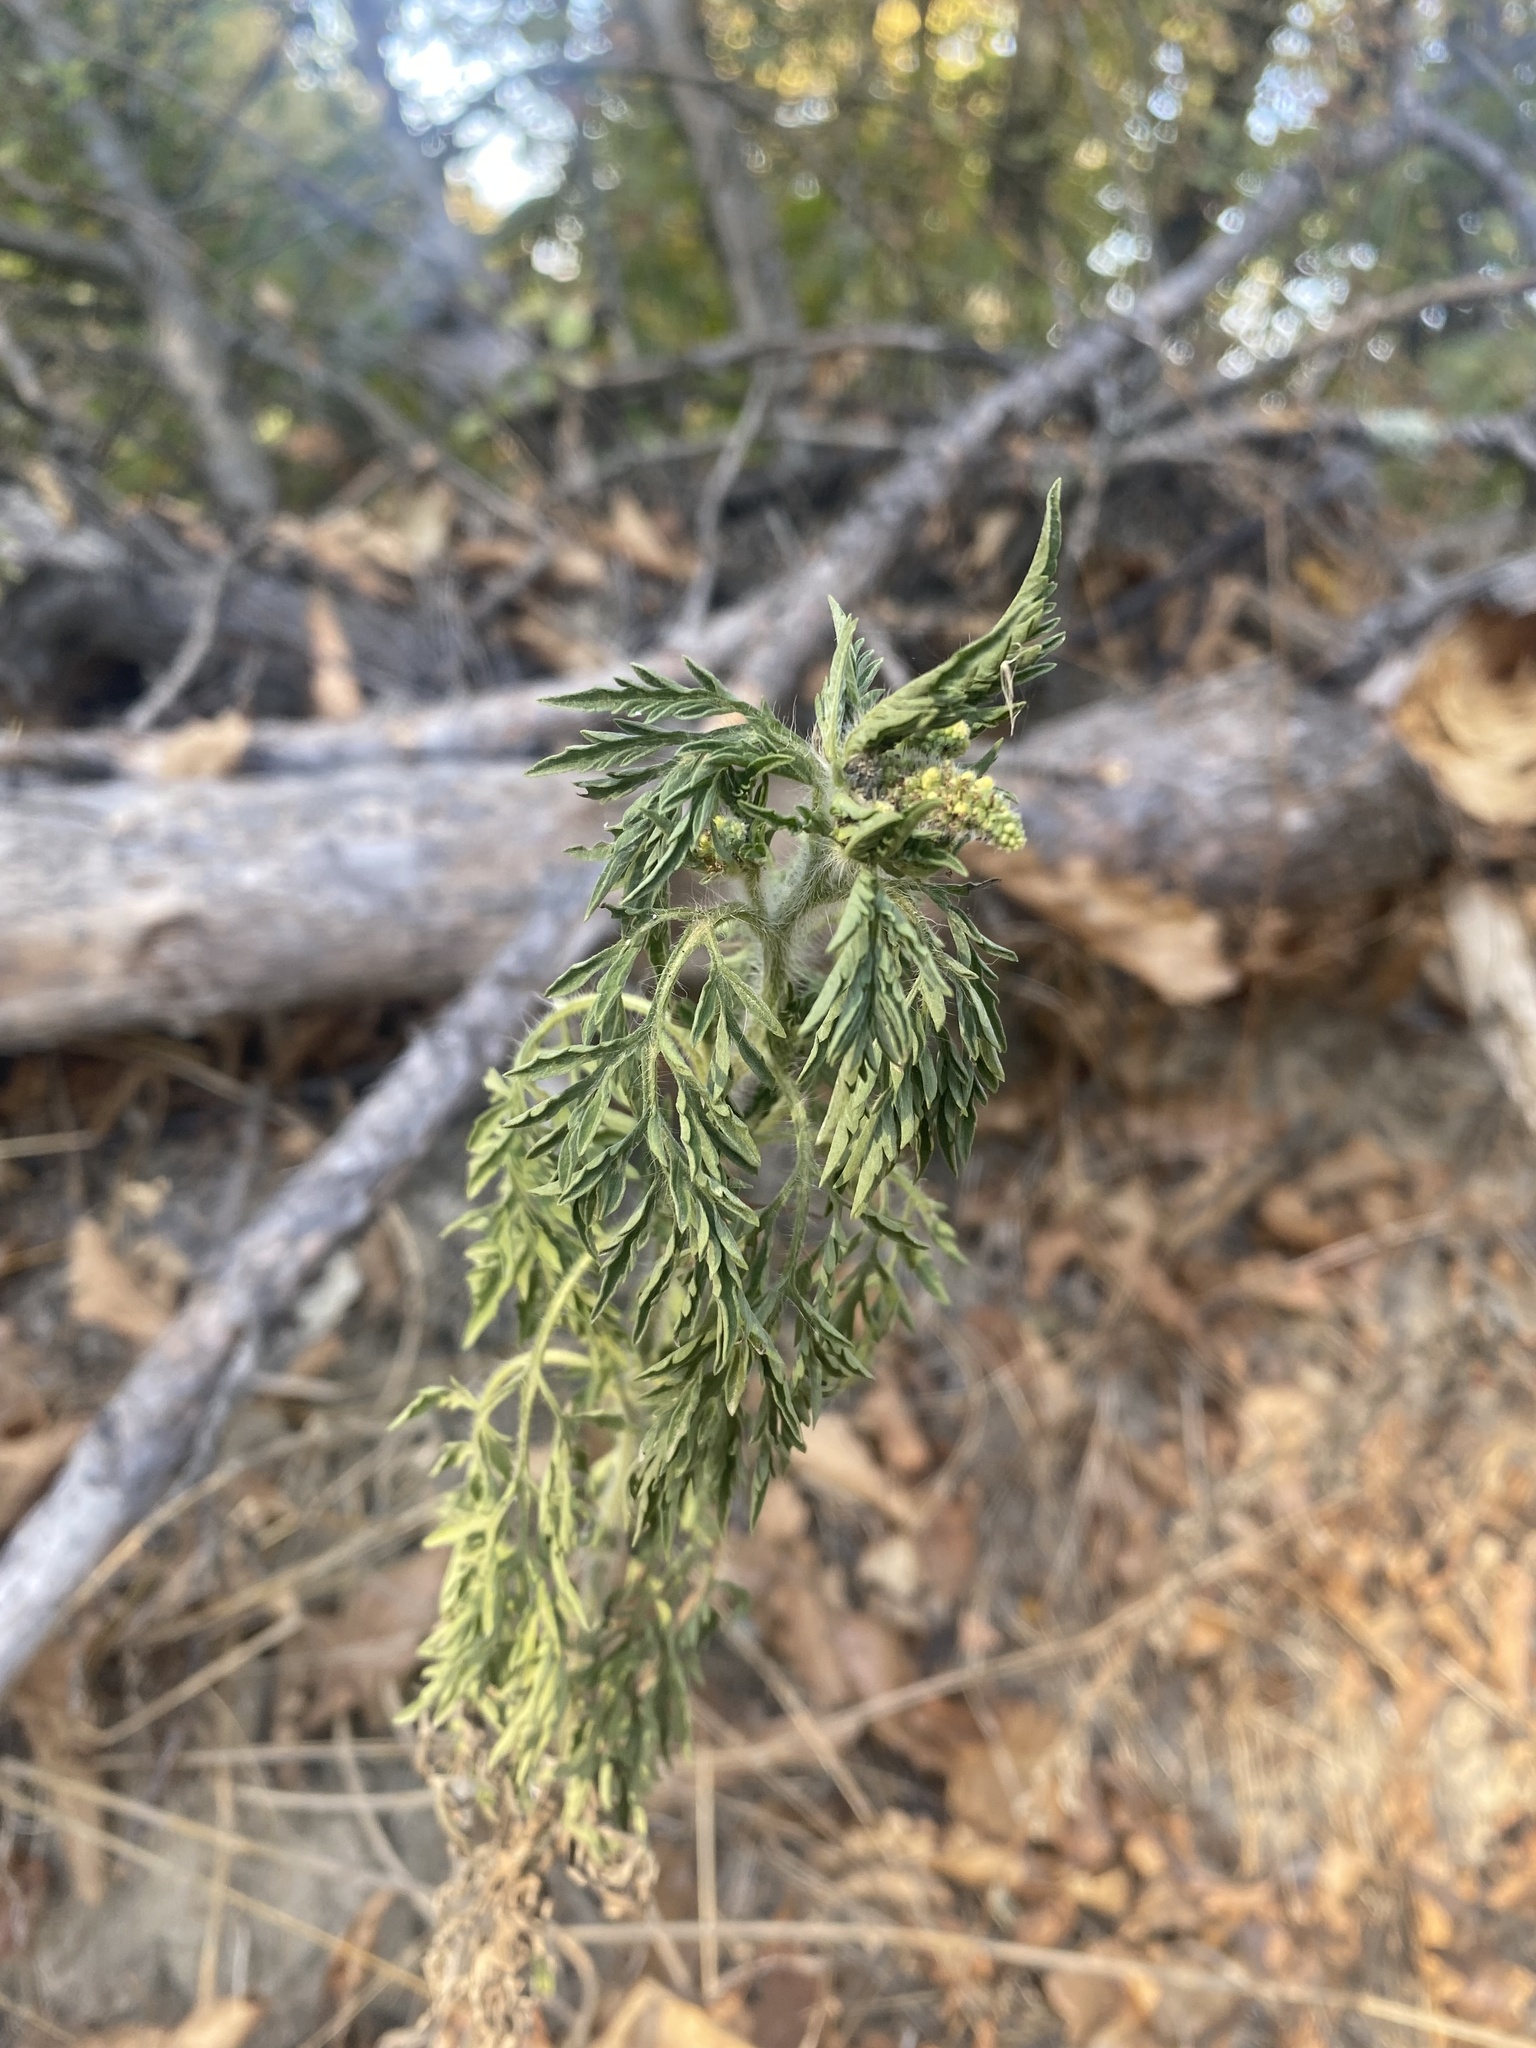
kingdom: Plantae
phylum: Tracheophyta
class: Magnoliopsida
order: Asterales
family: Asteraceae
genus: Ambrosia
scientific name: Ambrosia artemisiifolia
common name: Annual ragweed
